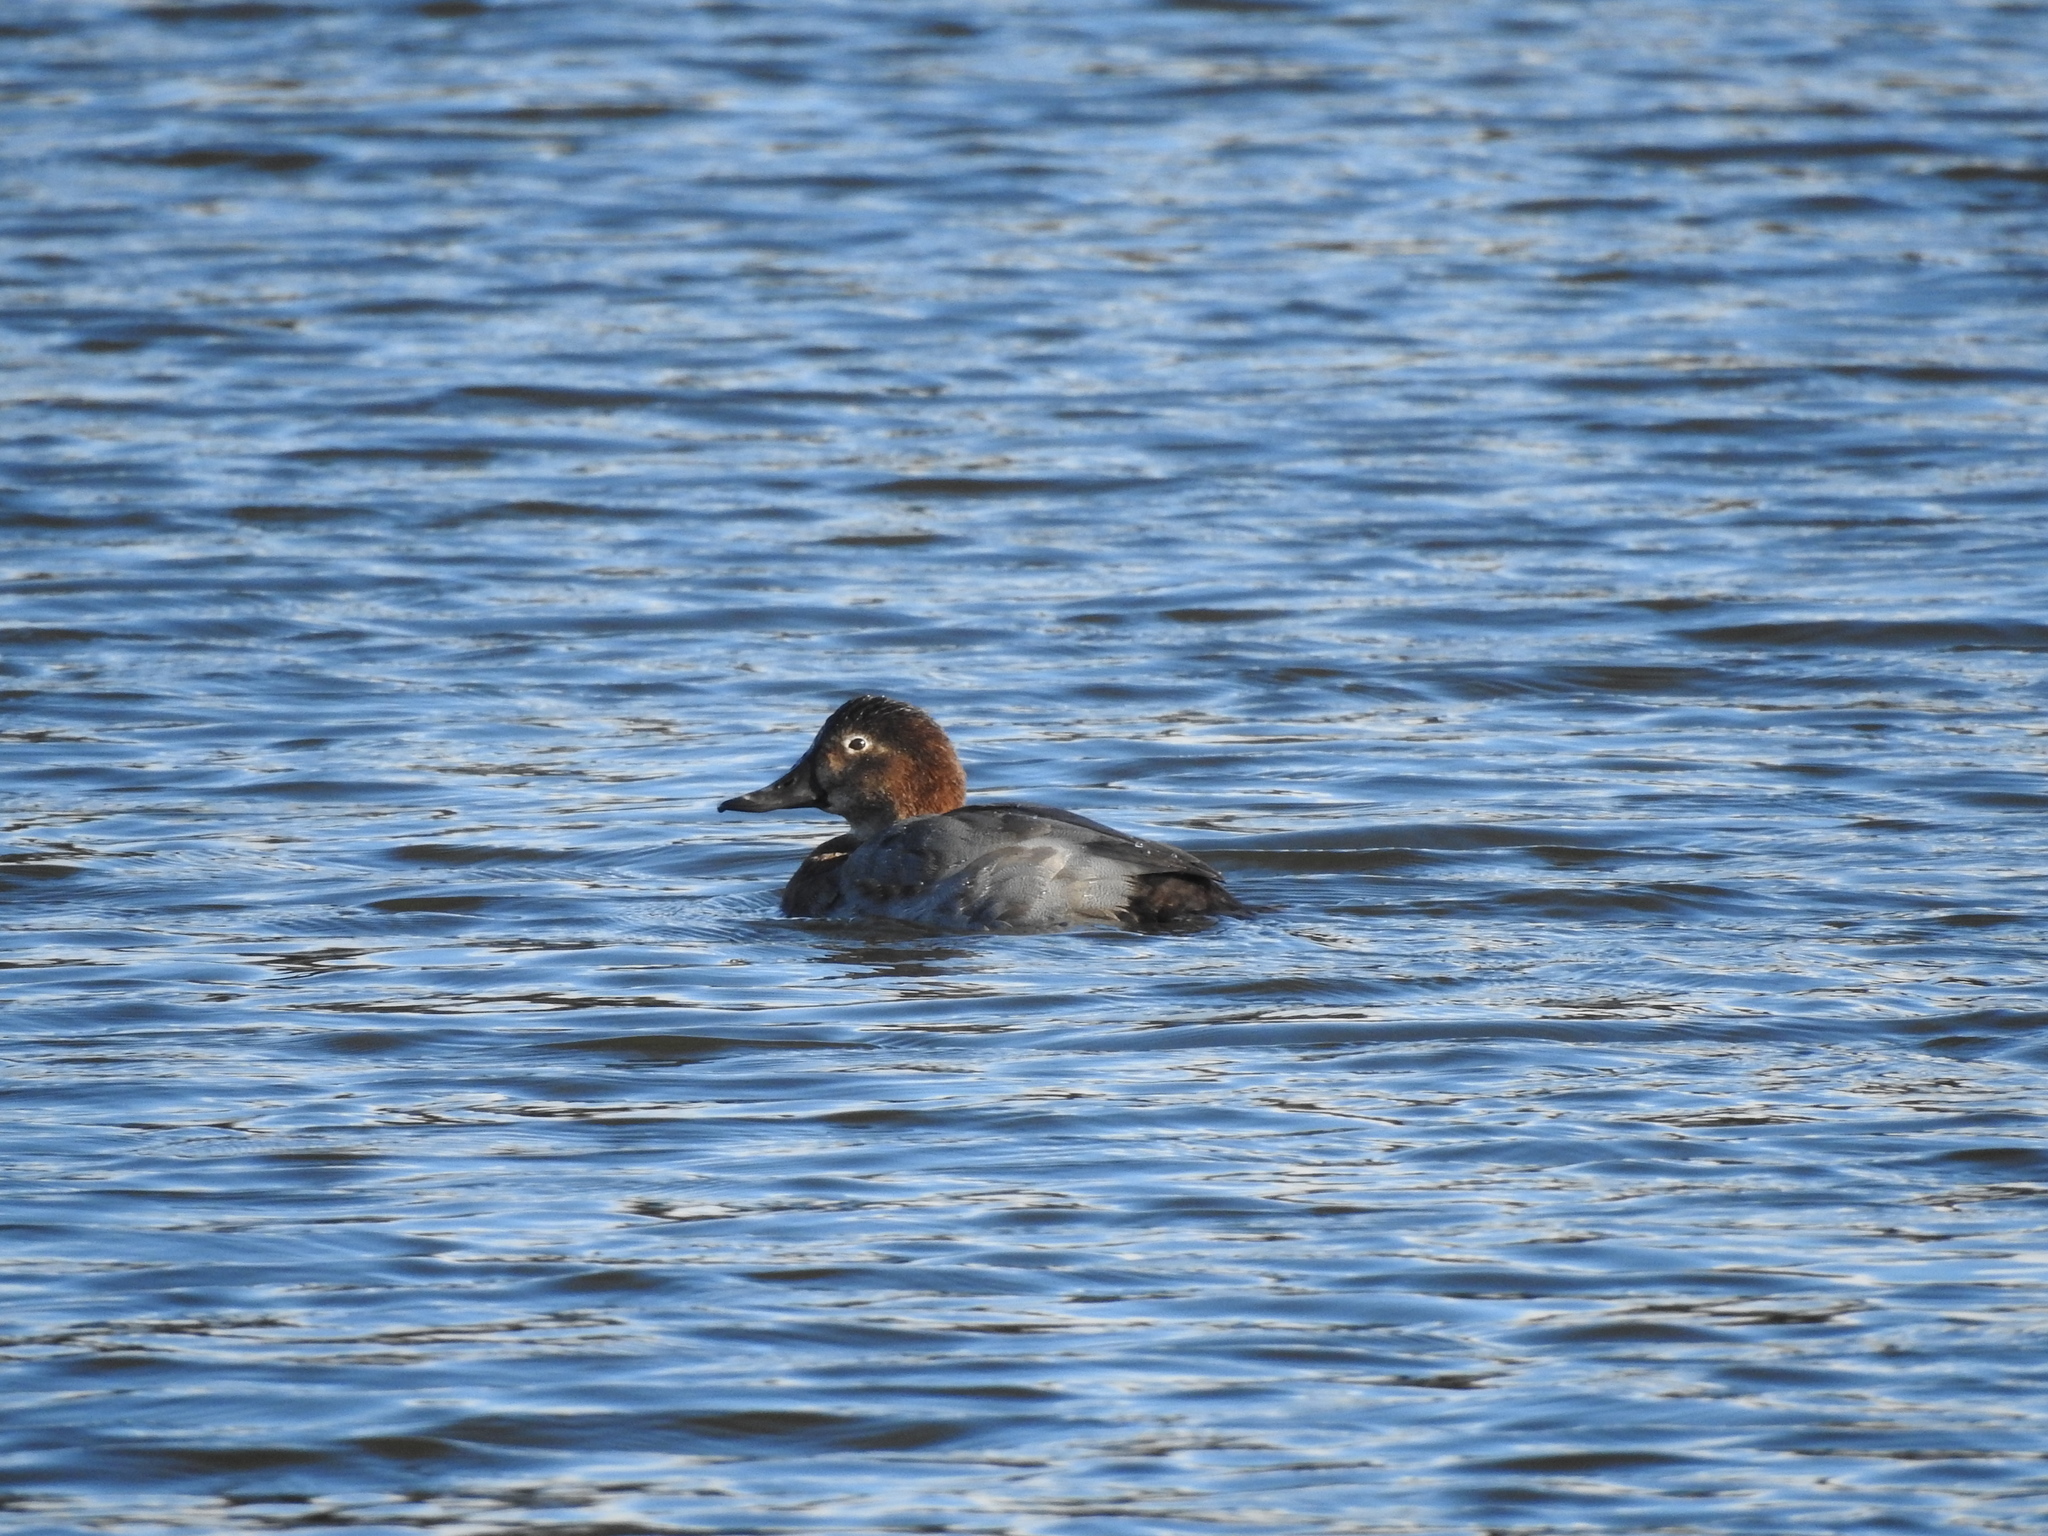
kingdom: Animalia
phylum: Chordata
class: Aves
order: Anseriformes
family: Anatidae
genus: Aythya
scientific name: Aythya ferina
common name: Common pochard
